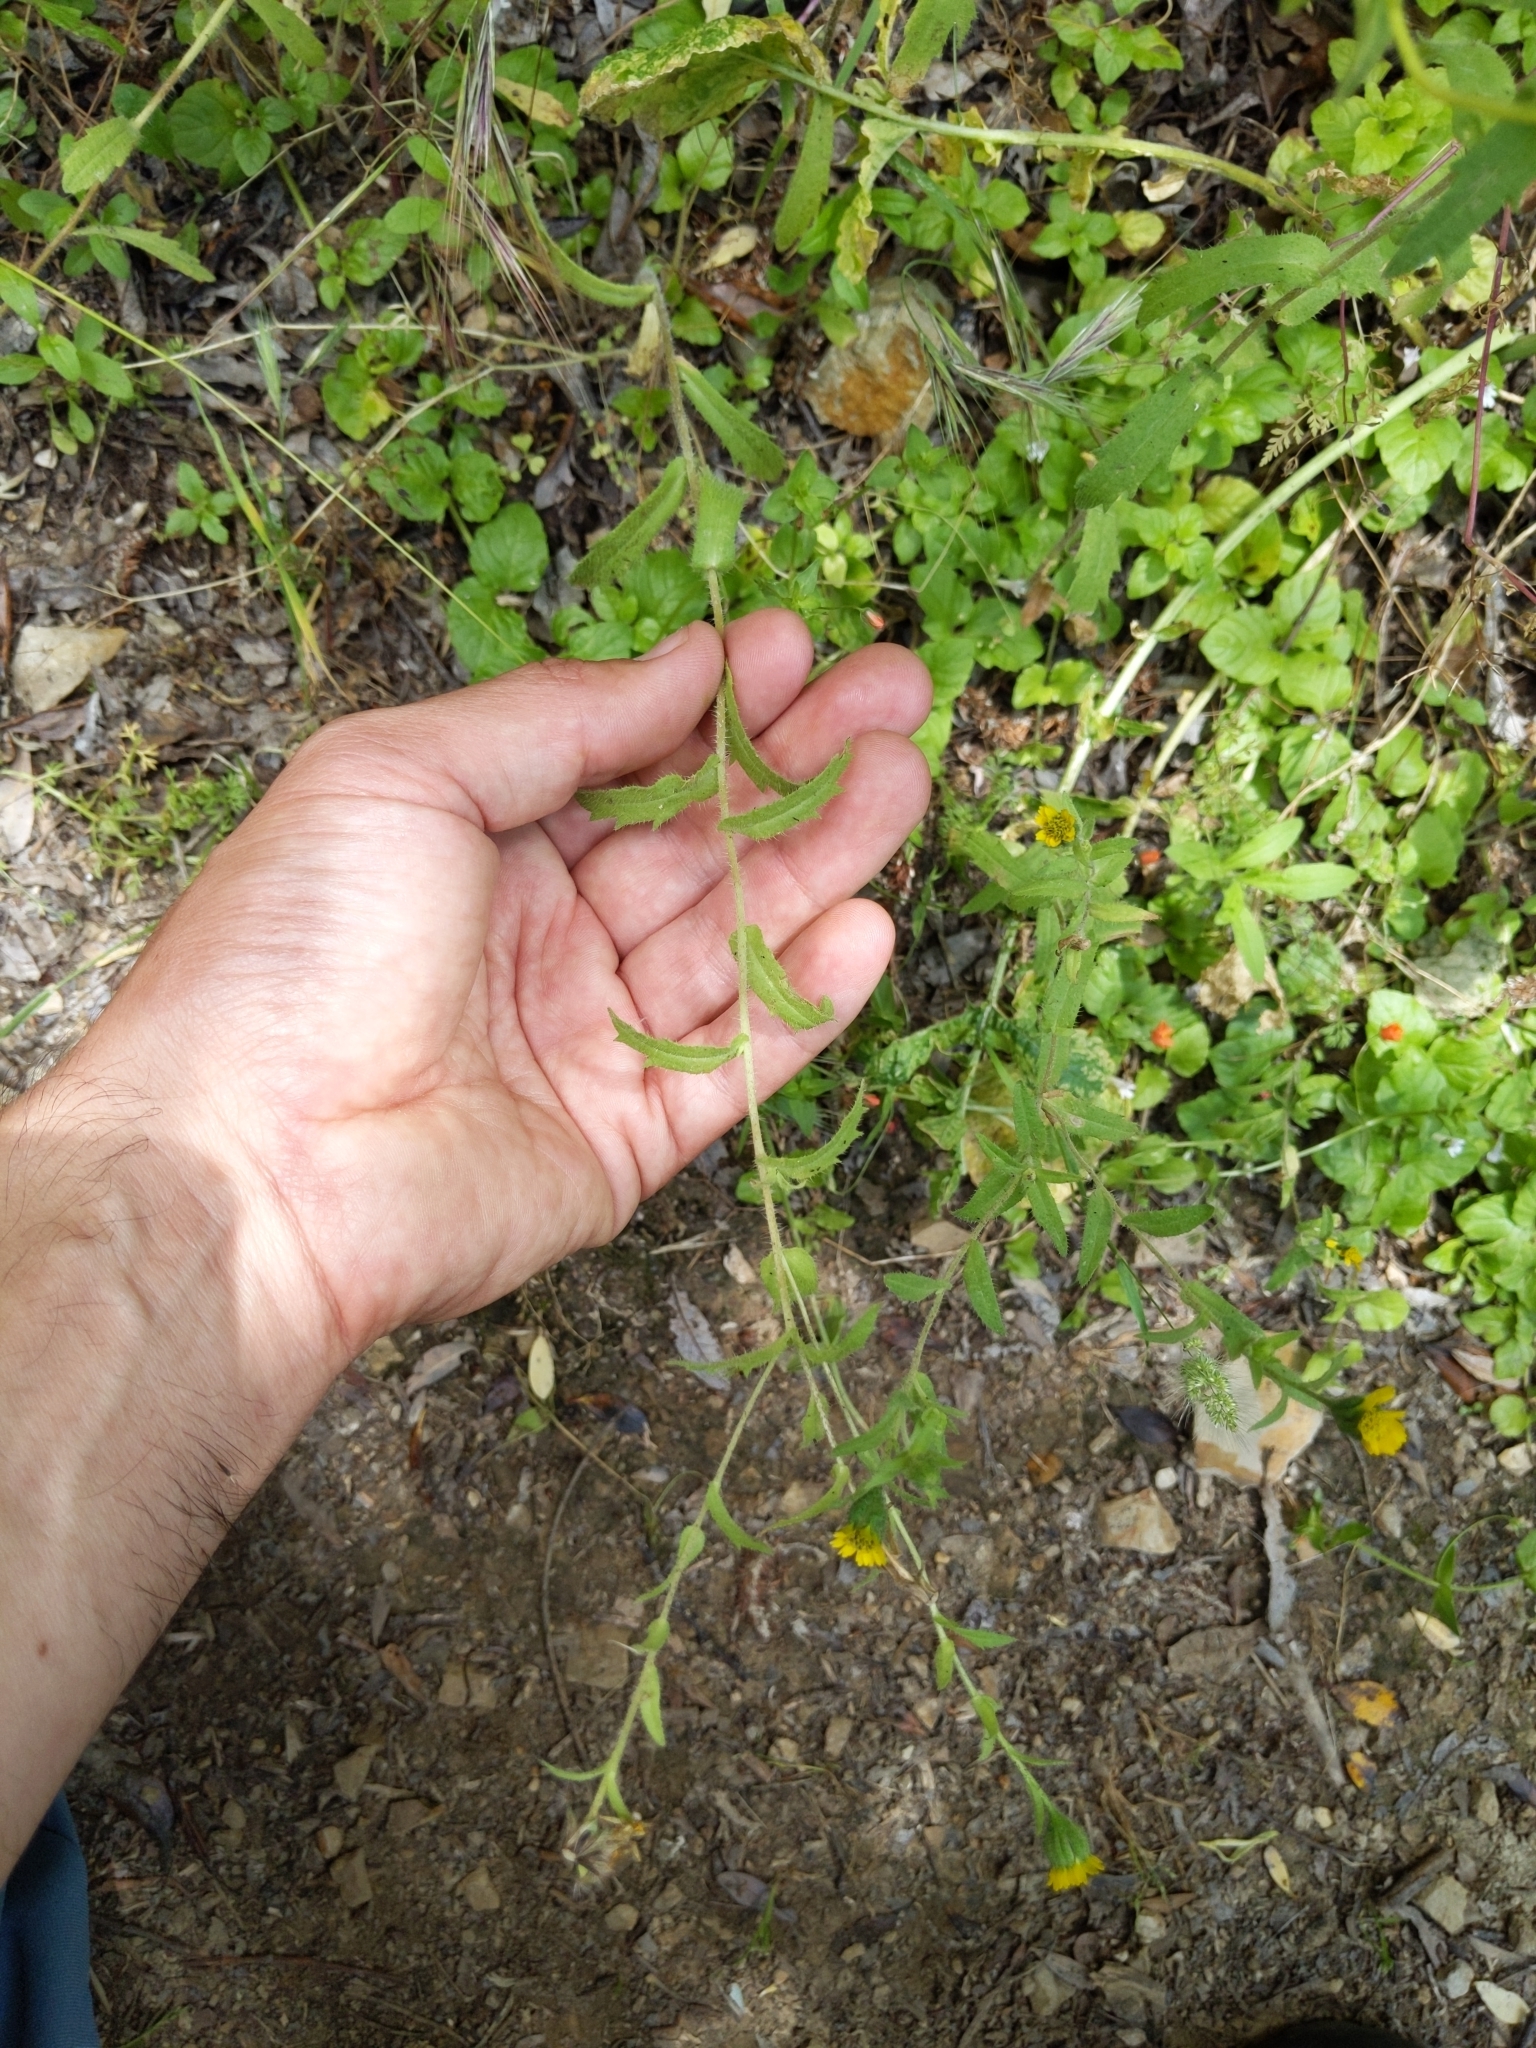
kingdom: Plantae
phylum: Tracheophyta
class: Magnoliopsida
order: Asterales
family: Asteraceae
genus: Layia
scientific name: Layia hieracioides
